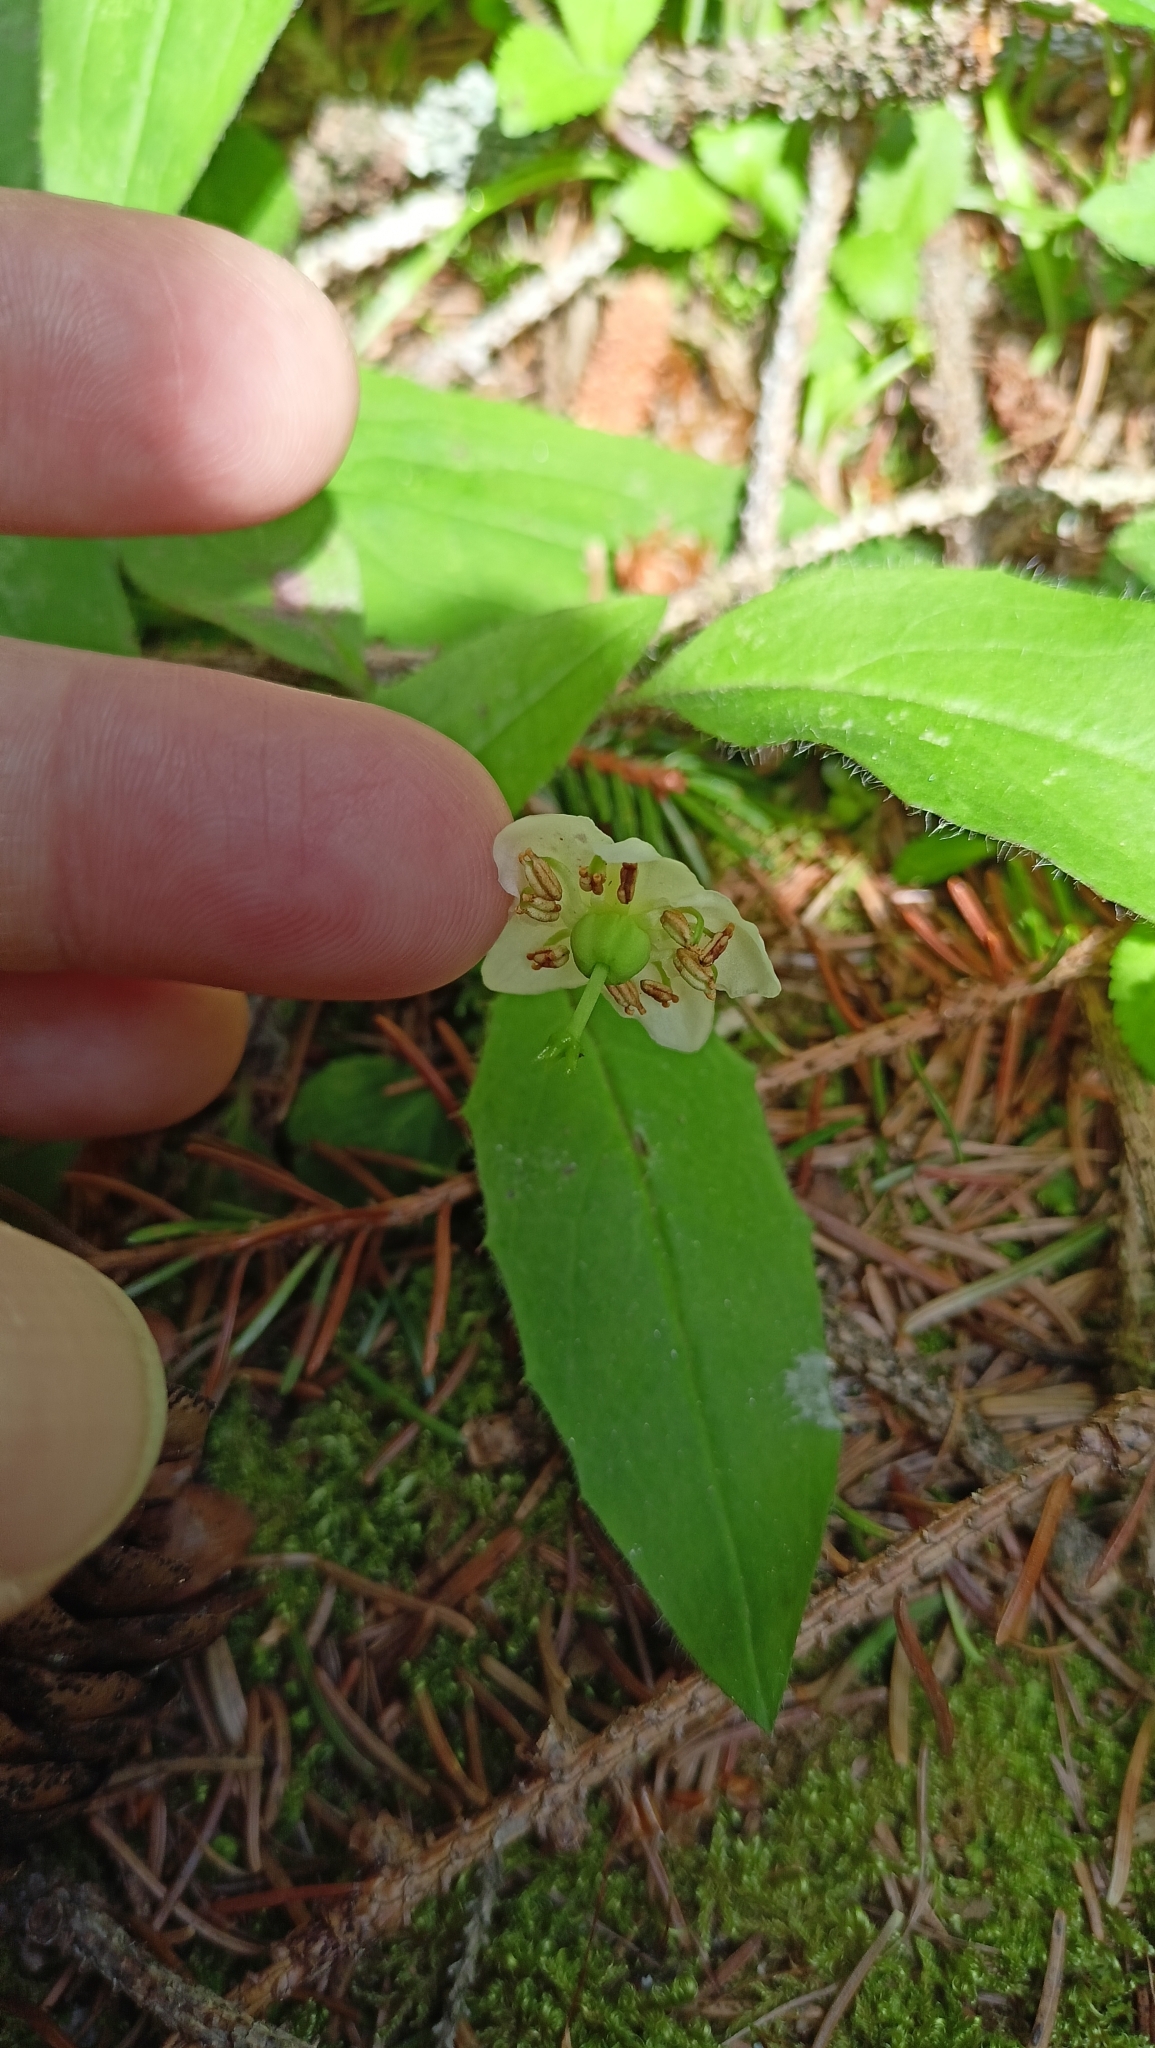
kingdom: Plantae
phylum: Tracheophyta
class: Magnoliopsida
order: Ericales
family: Ericaceae
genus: Moneses
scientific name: Moneses uniflora
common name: One-flowered wintergreen
